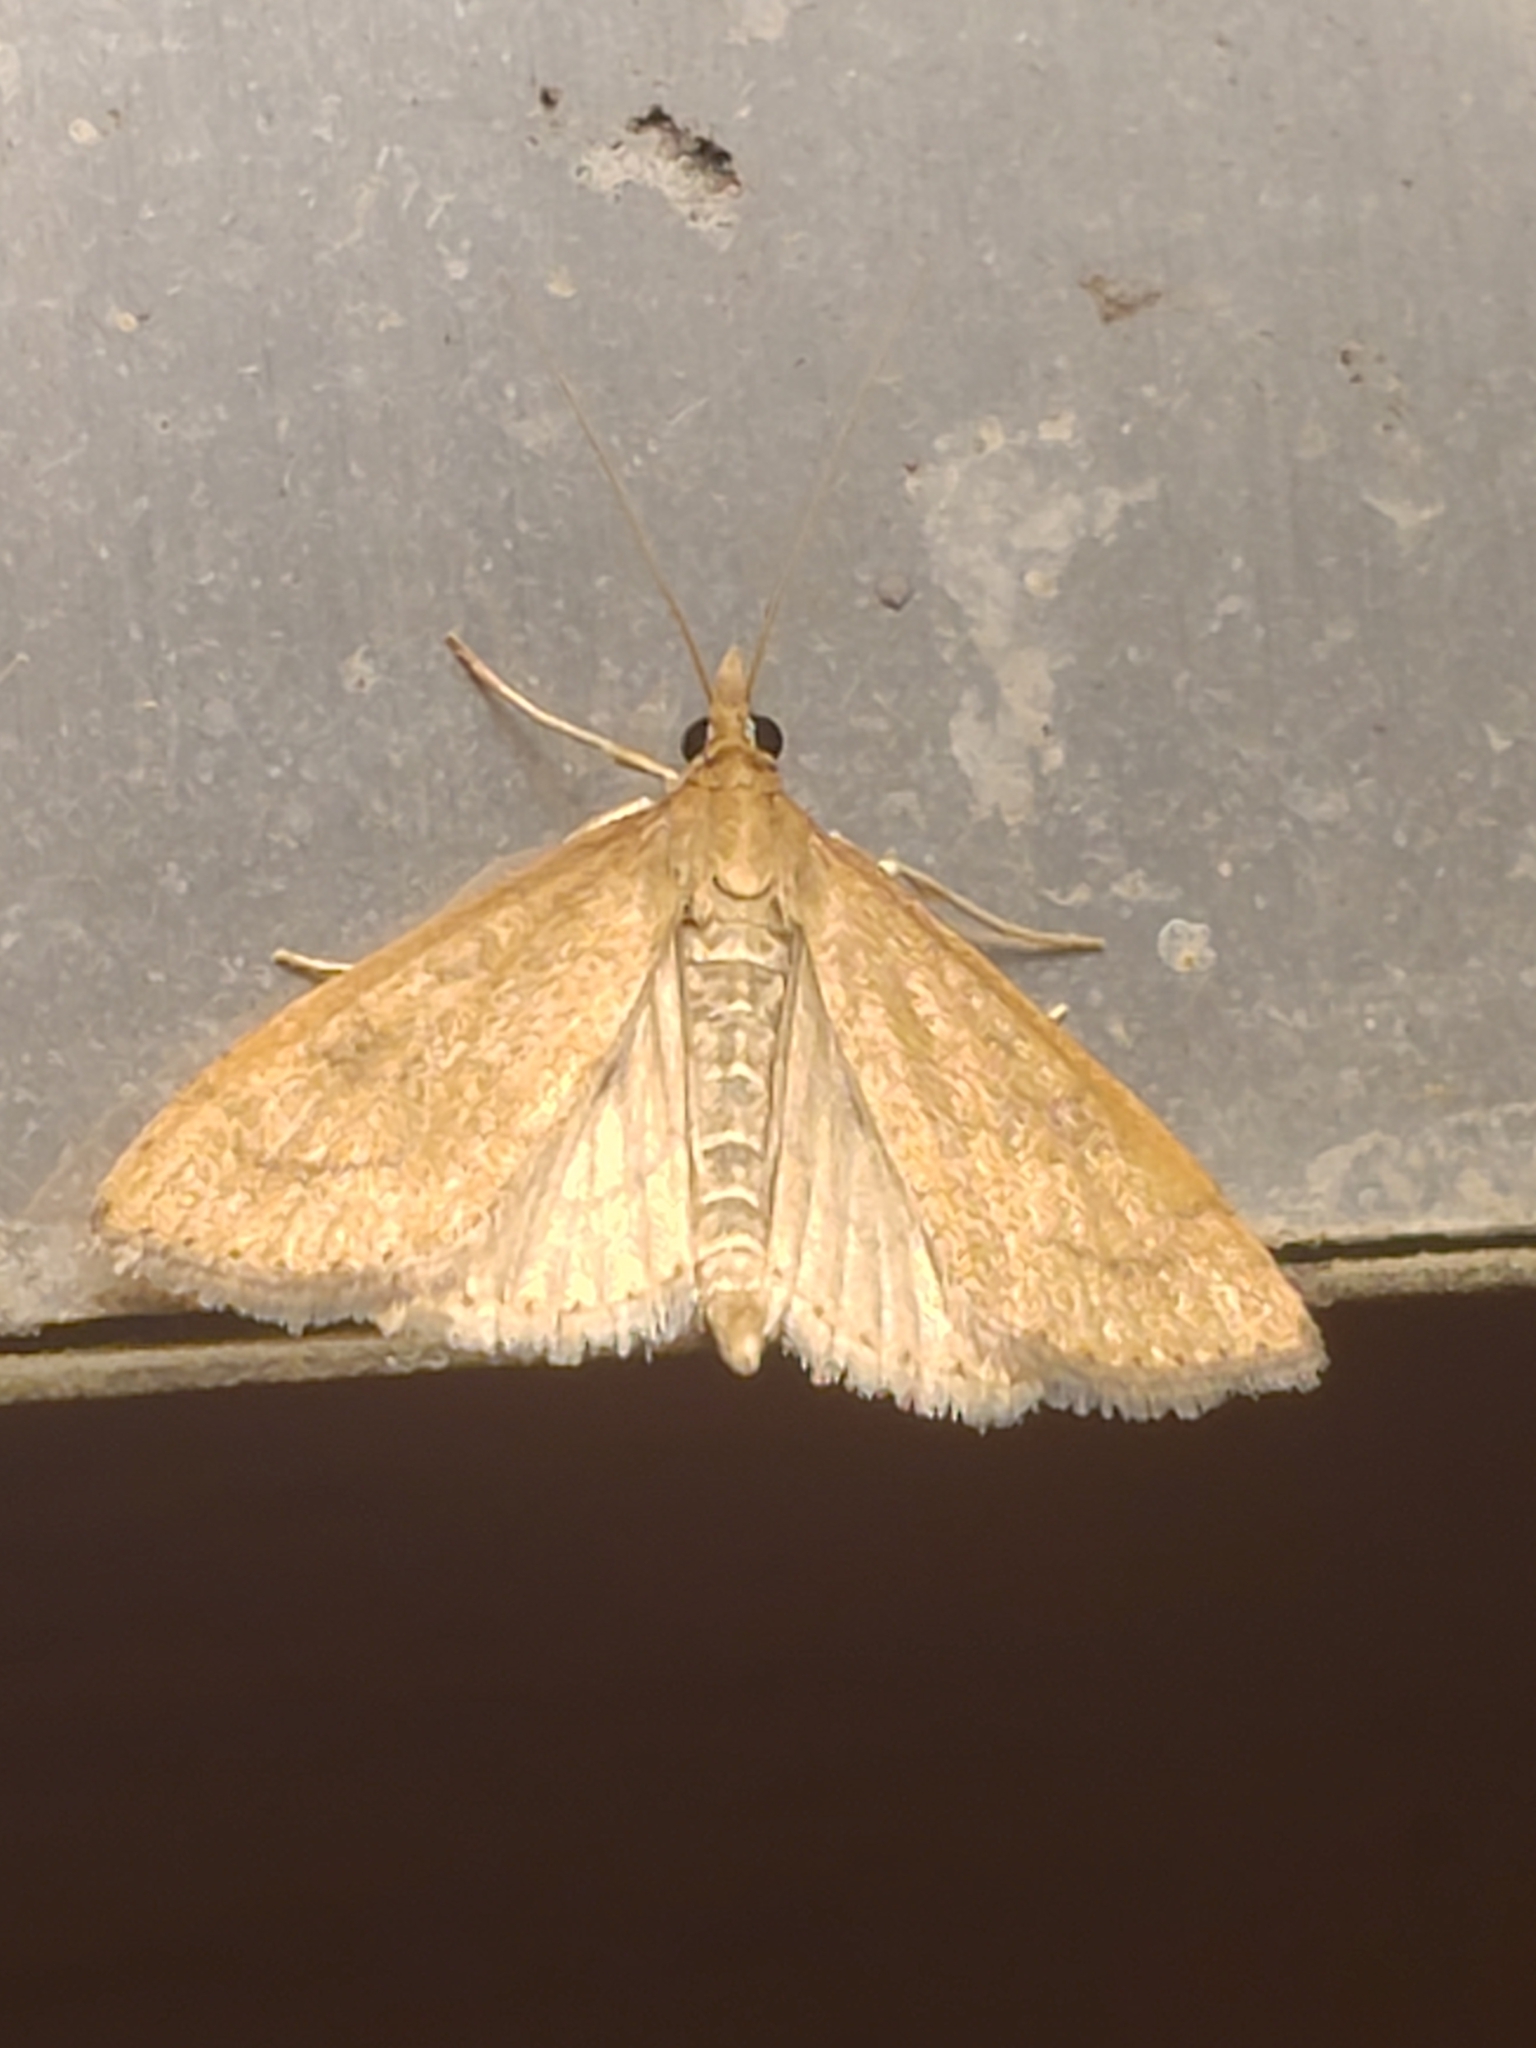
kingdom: Animalia
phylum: Arthropoda
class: Insecta
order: Lepidoptera
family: Crambidae
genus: Udea
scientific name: Udea rubigalis
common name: Celery leaftier moth
